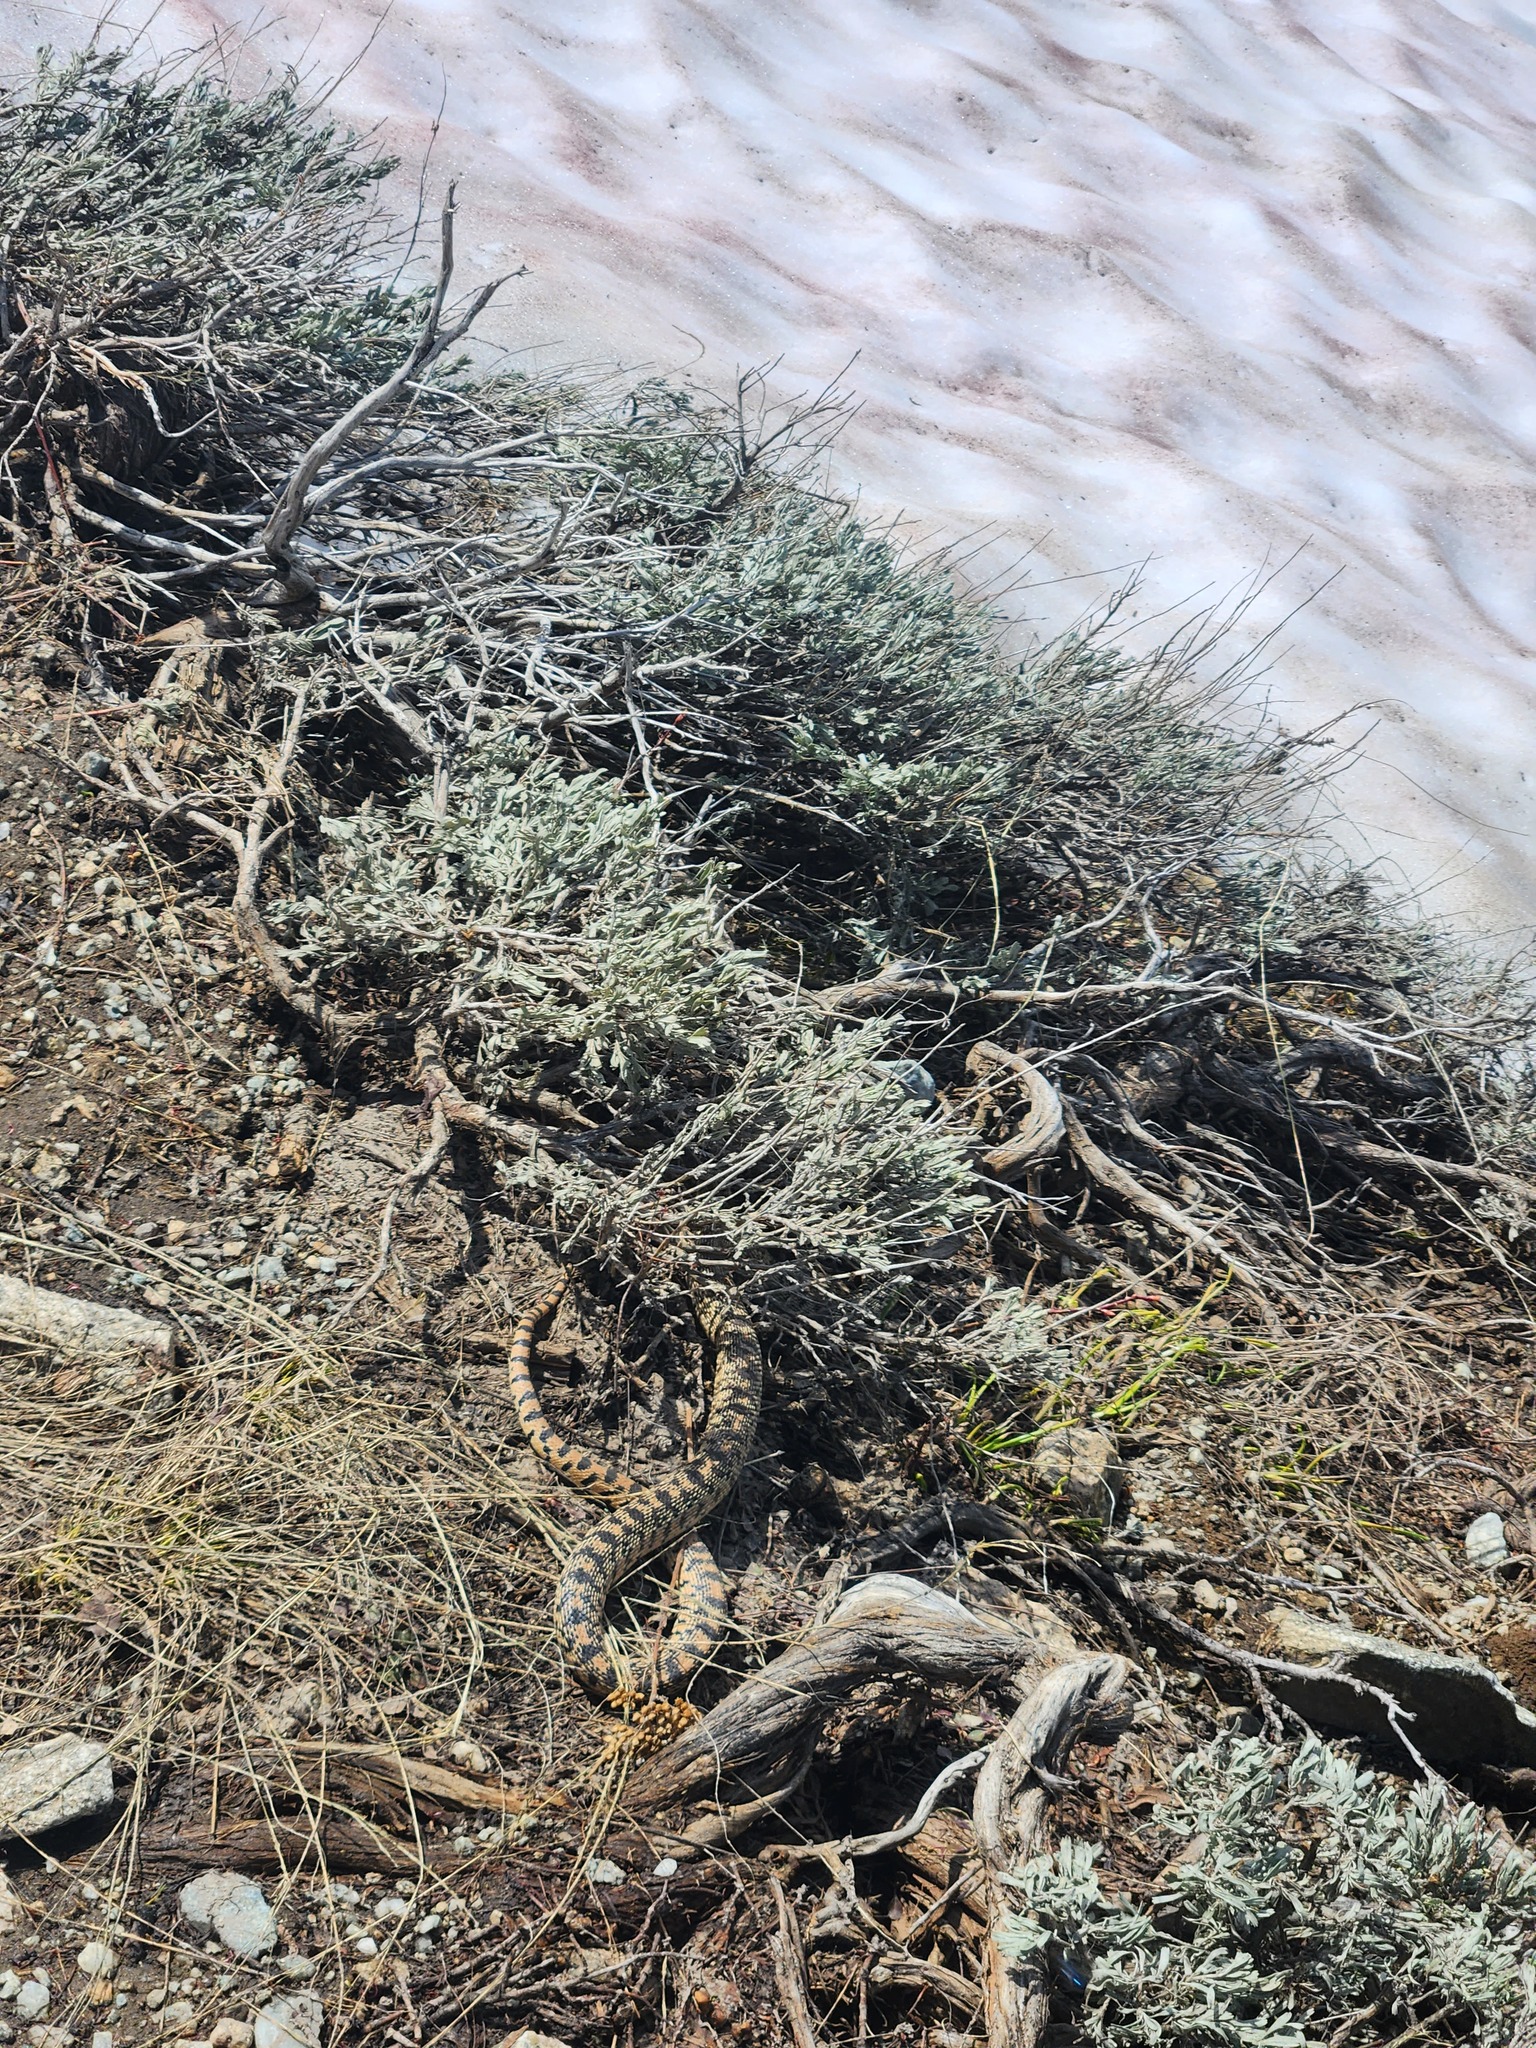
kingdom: Animalia
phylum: Chordata
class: Squamata
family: Colubridae
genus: Pituophis
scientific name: Pituophis catenifer
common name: Gopher snake
